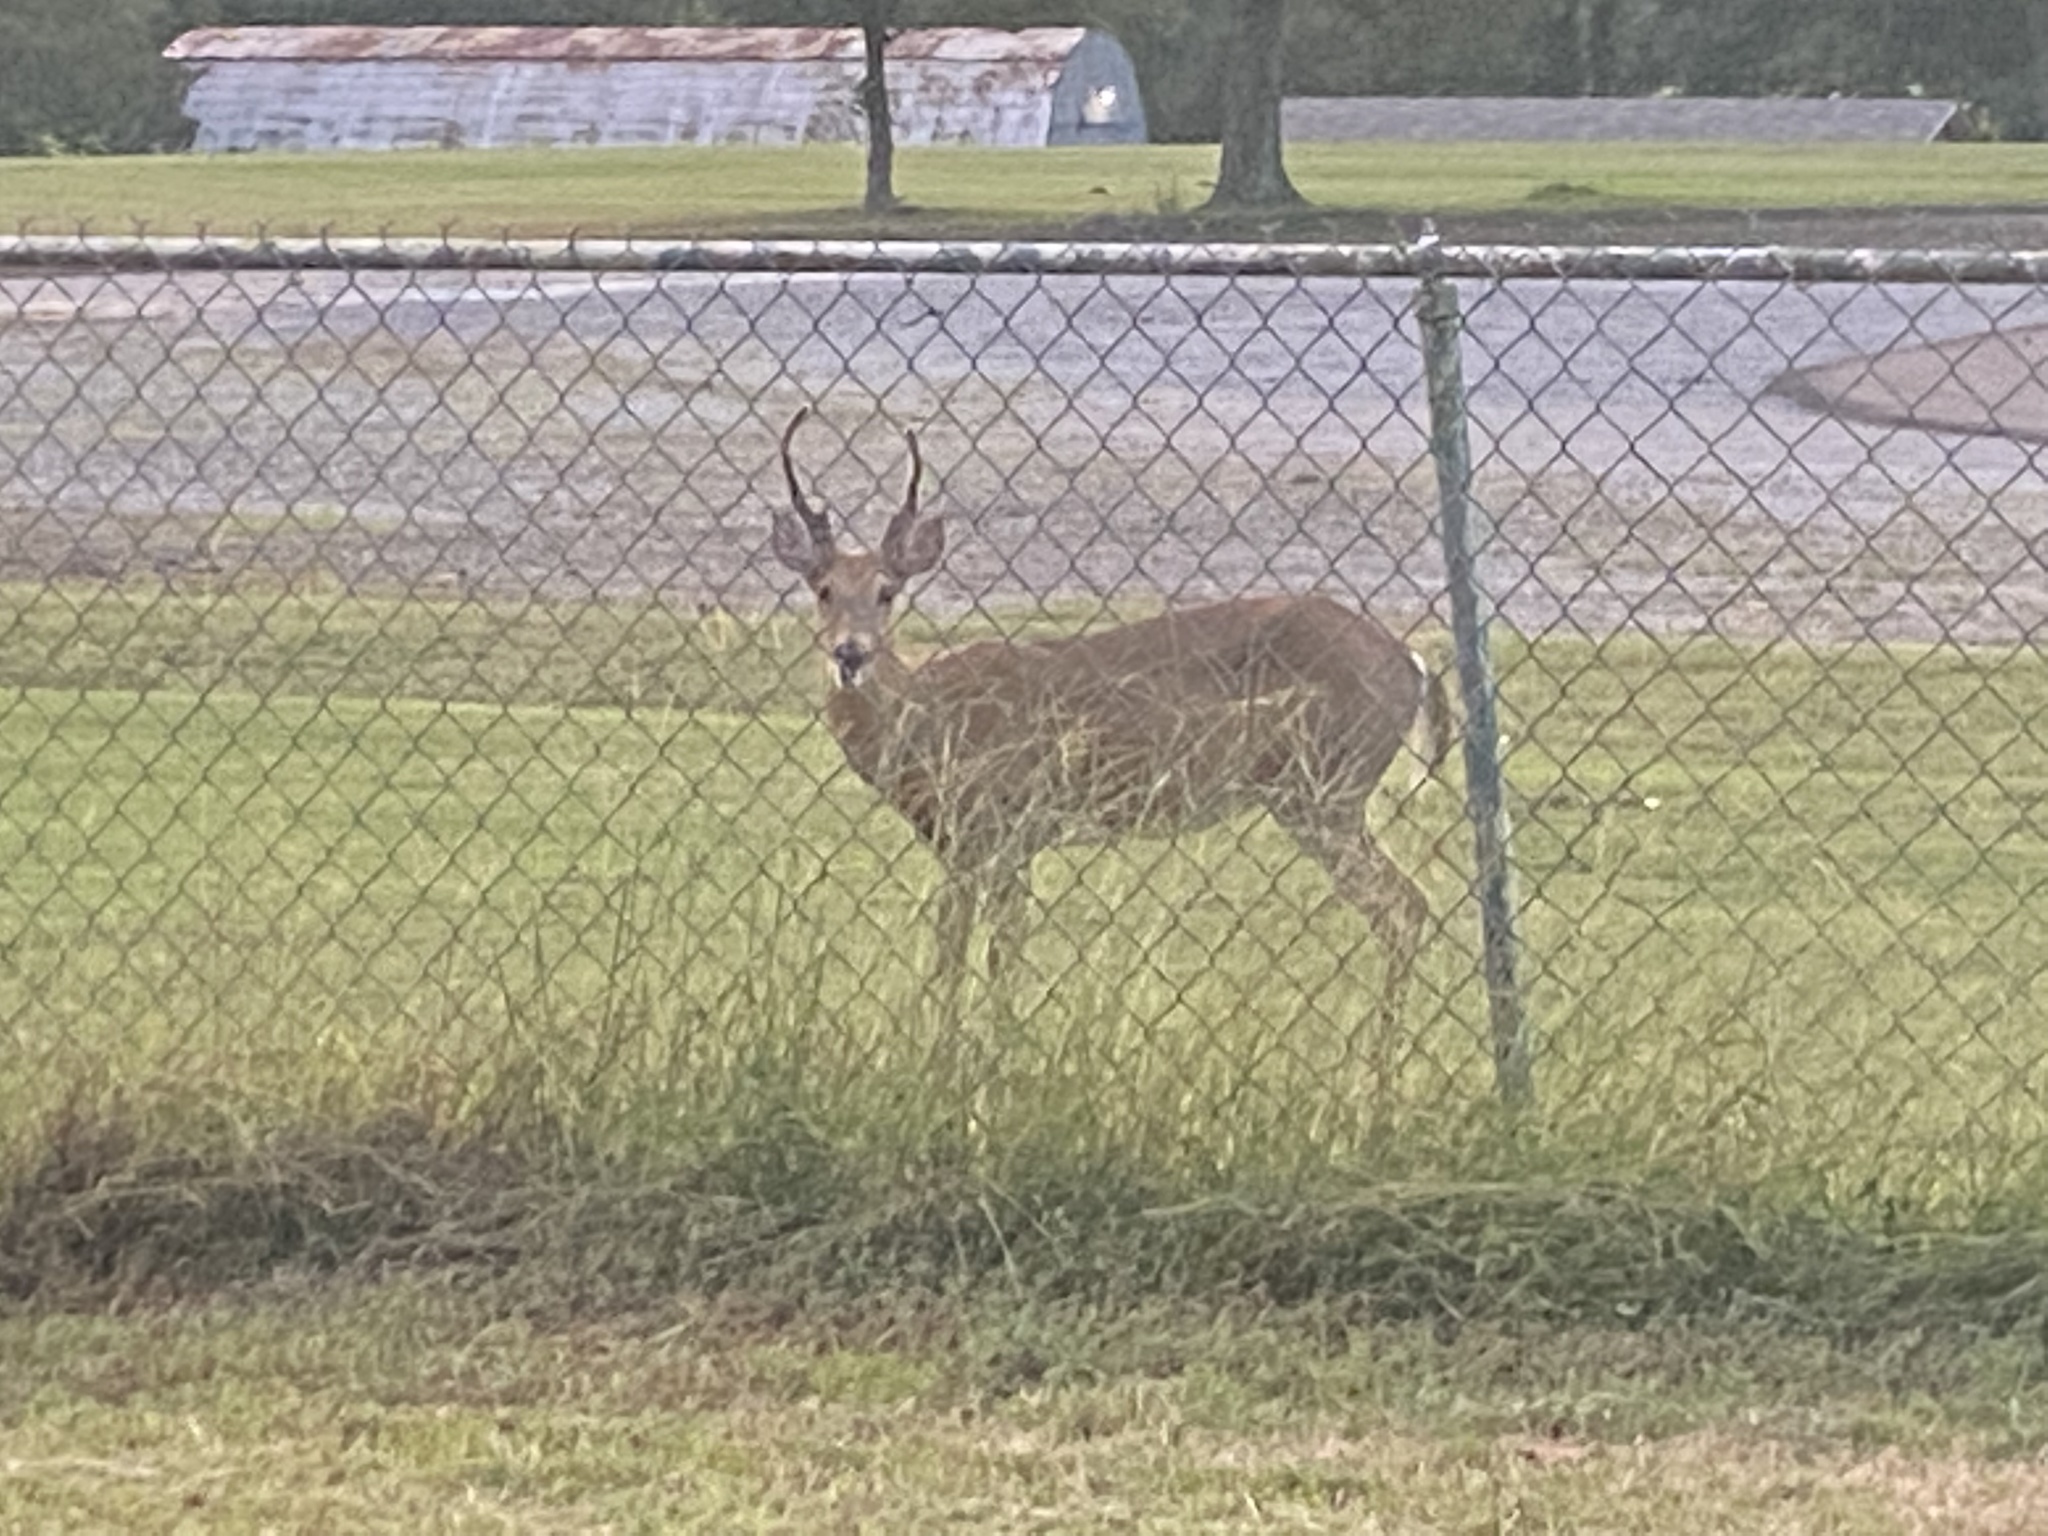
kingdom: Animalia
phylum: Chordata
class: Mammalia
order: Artiodactyla
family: Cervidae
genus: Odocoileus
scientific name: Odocoileus virginianus
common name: White-tailed deer
